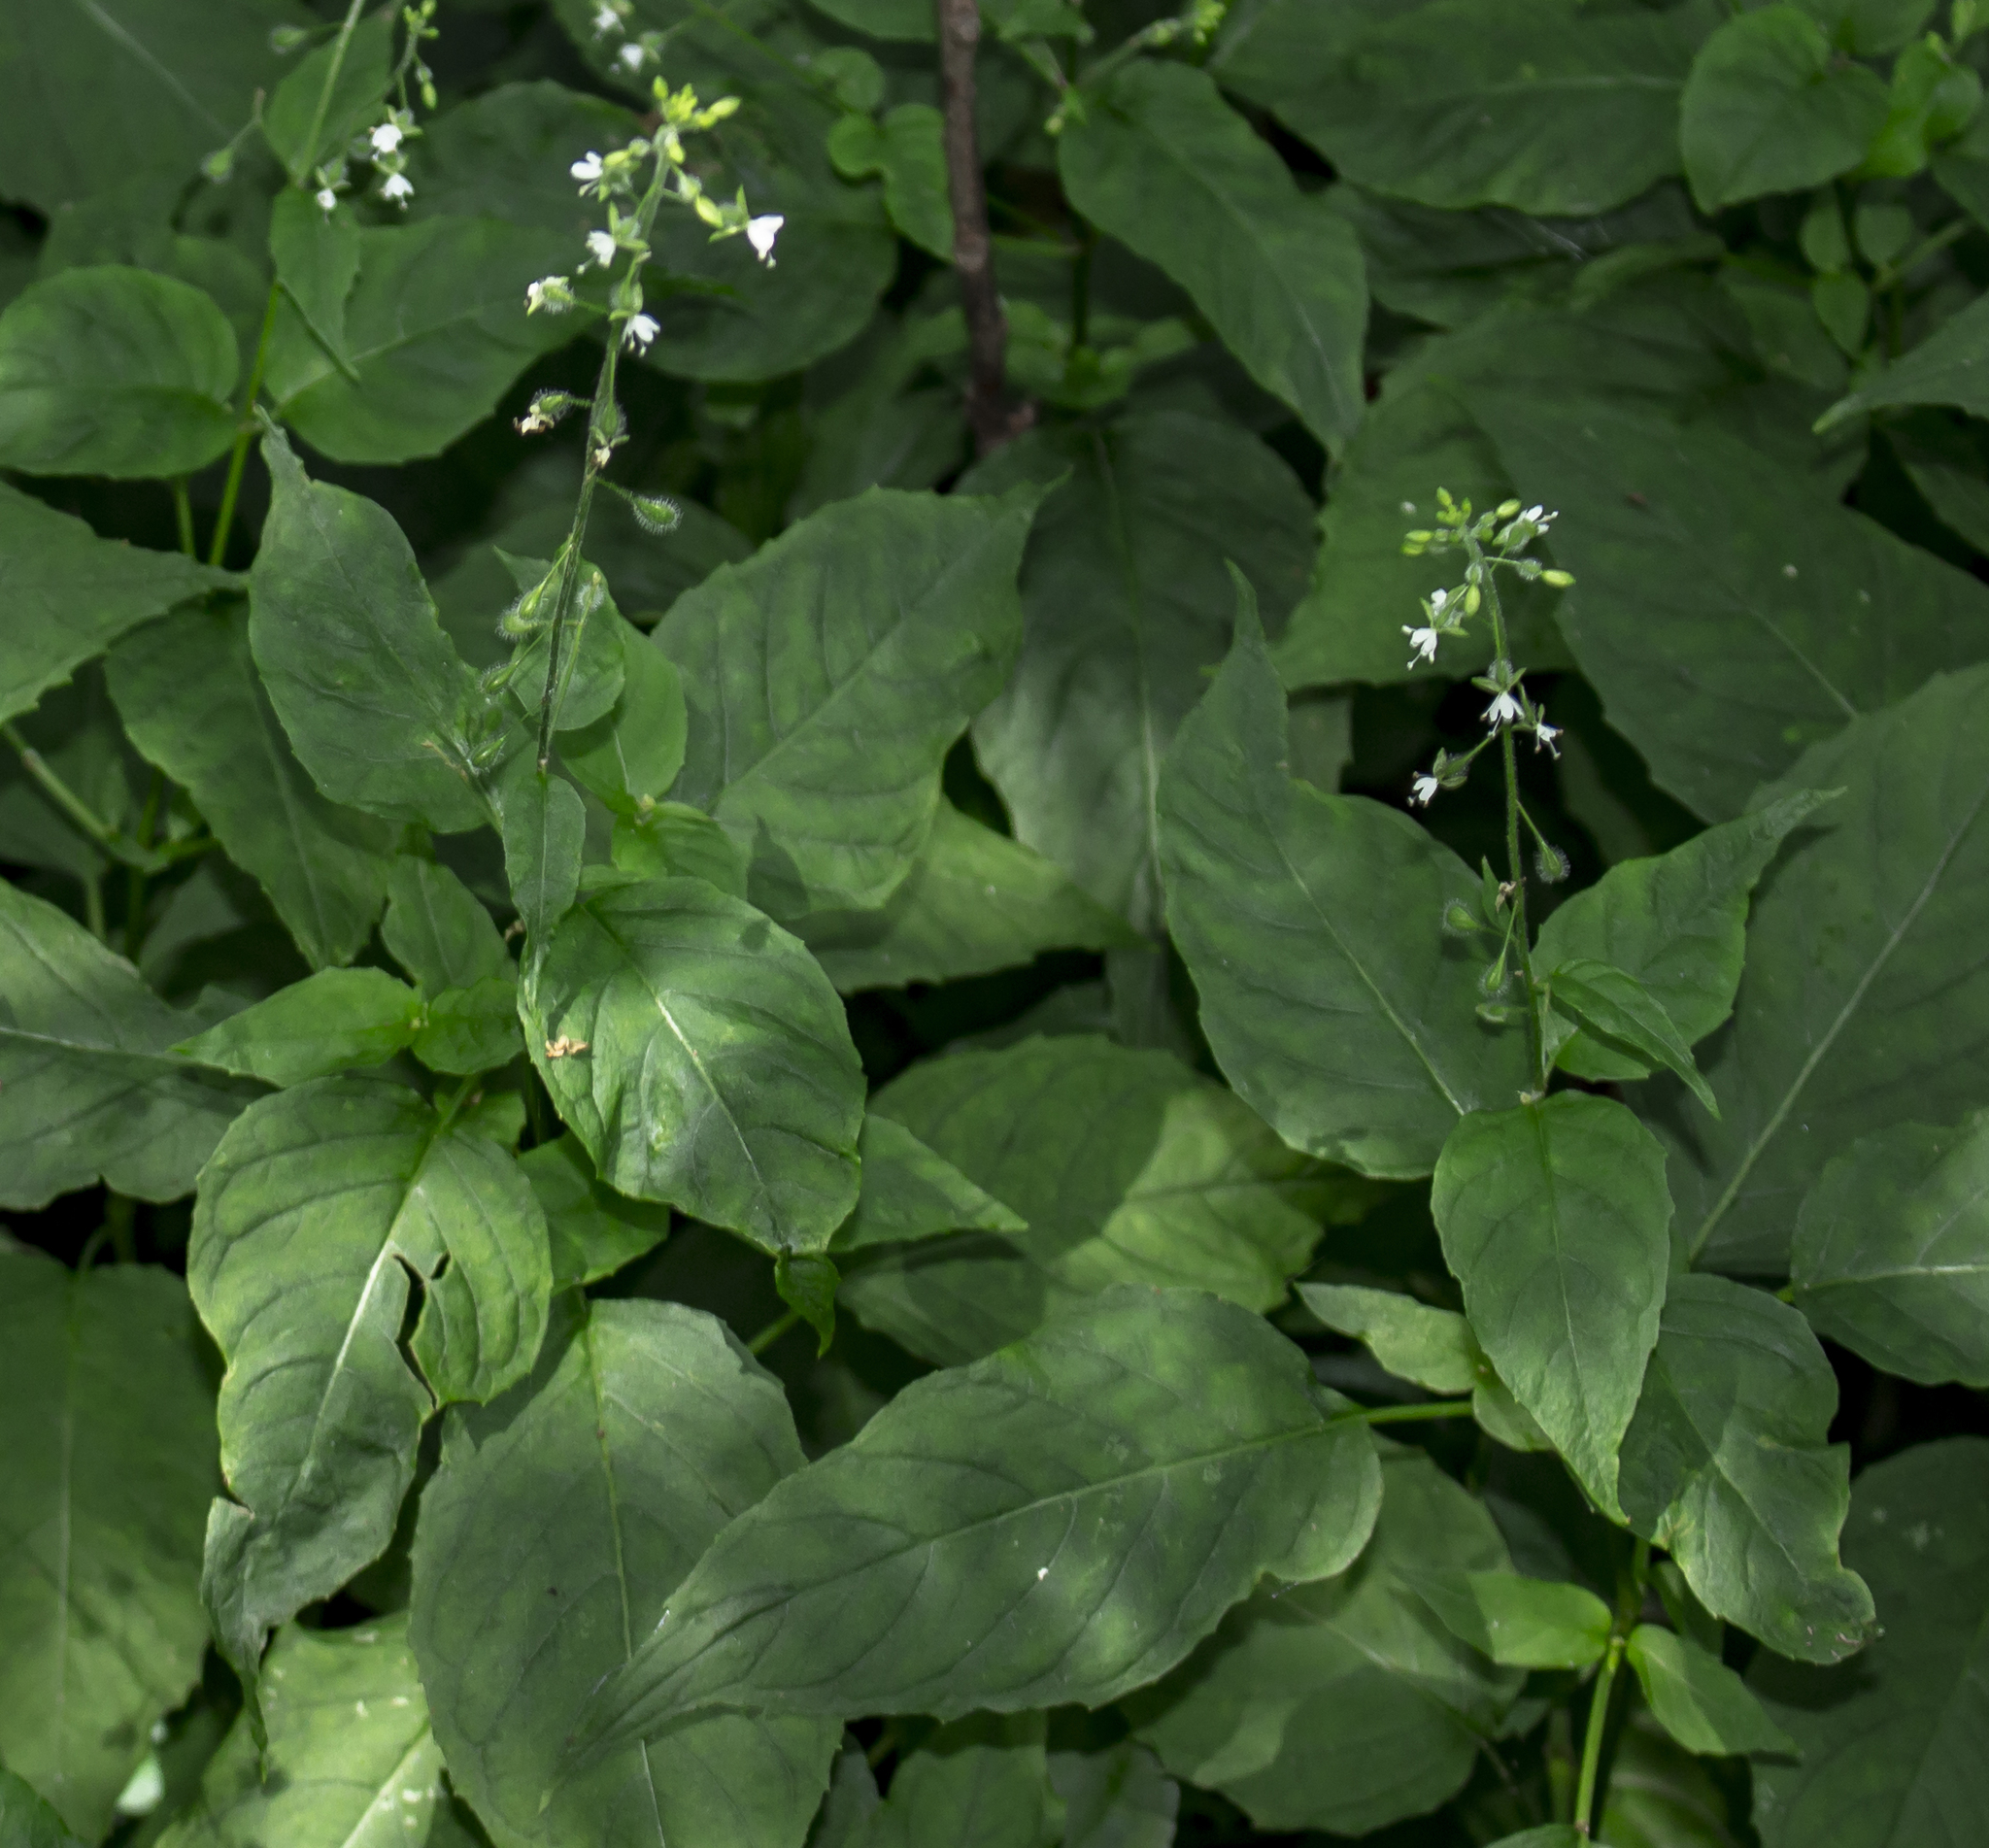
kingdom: Plantae
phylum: Tracheophyta
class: Magnoliopsida
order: Myrtales
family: Onagraceae
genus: Circaea
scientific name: Circaea canadensis
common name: Broad-leaved enchanter's nightshade
